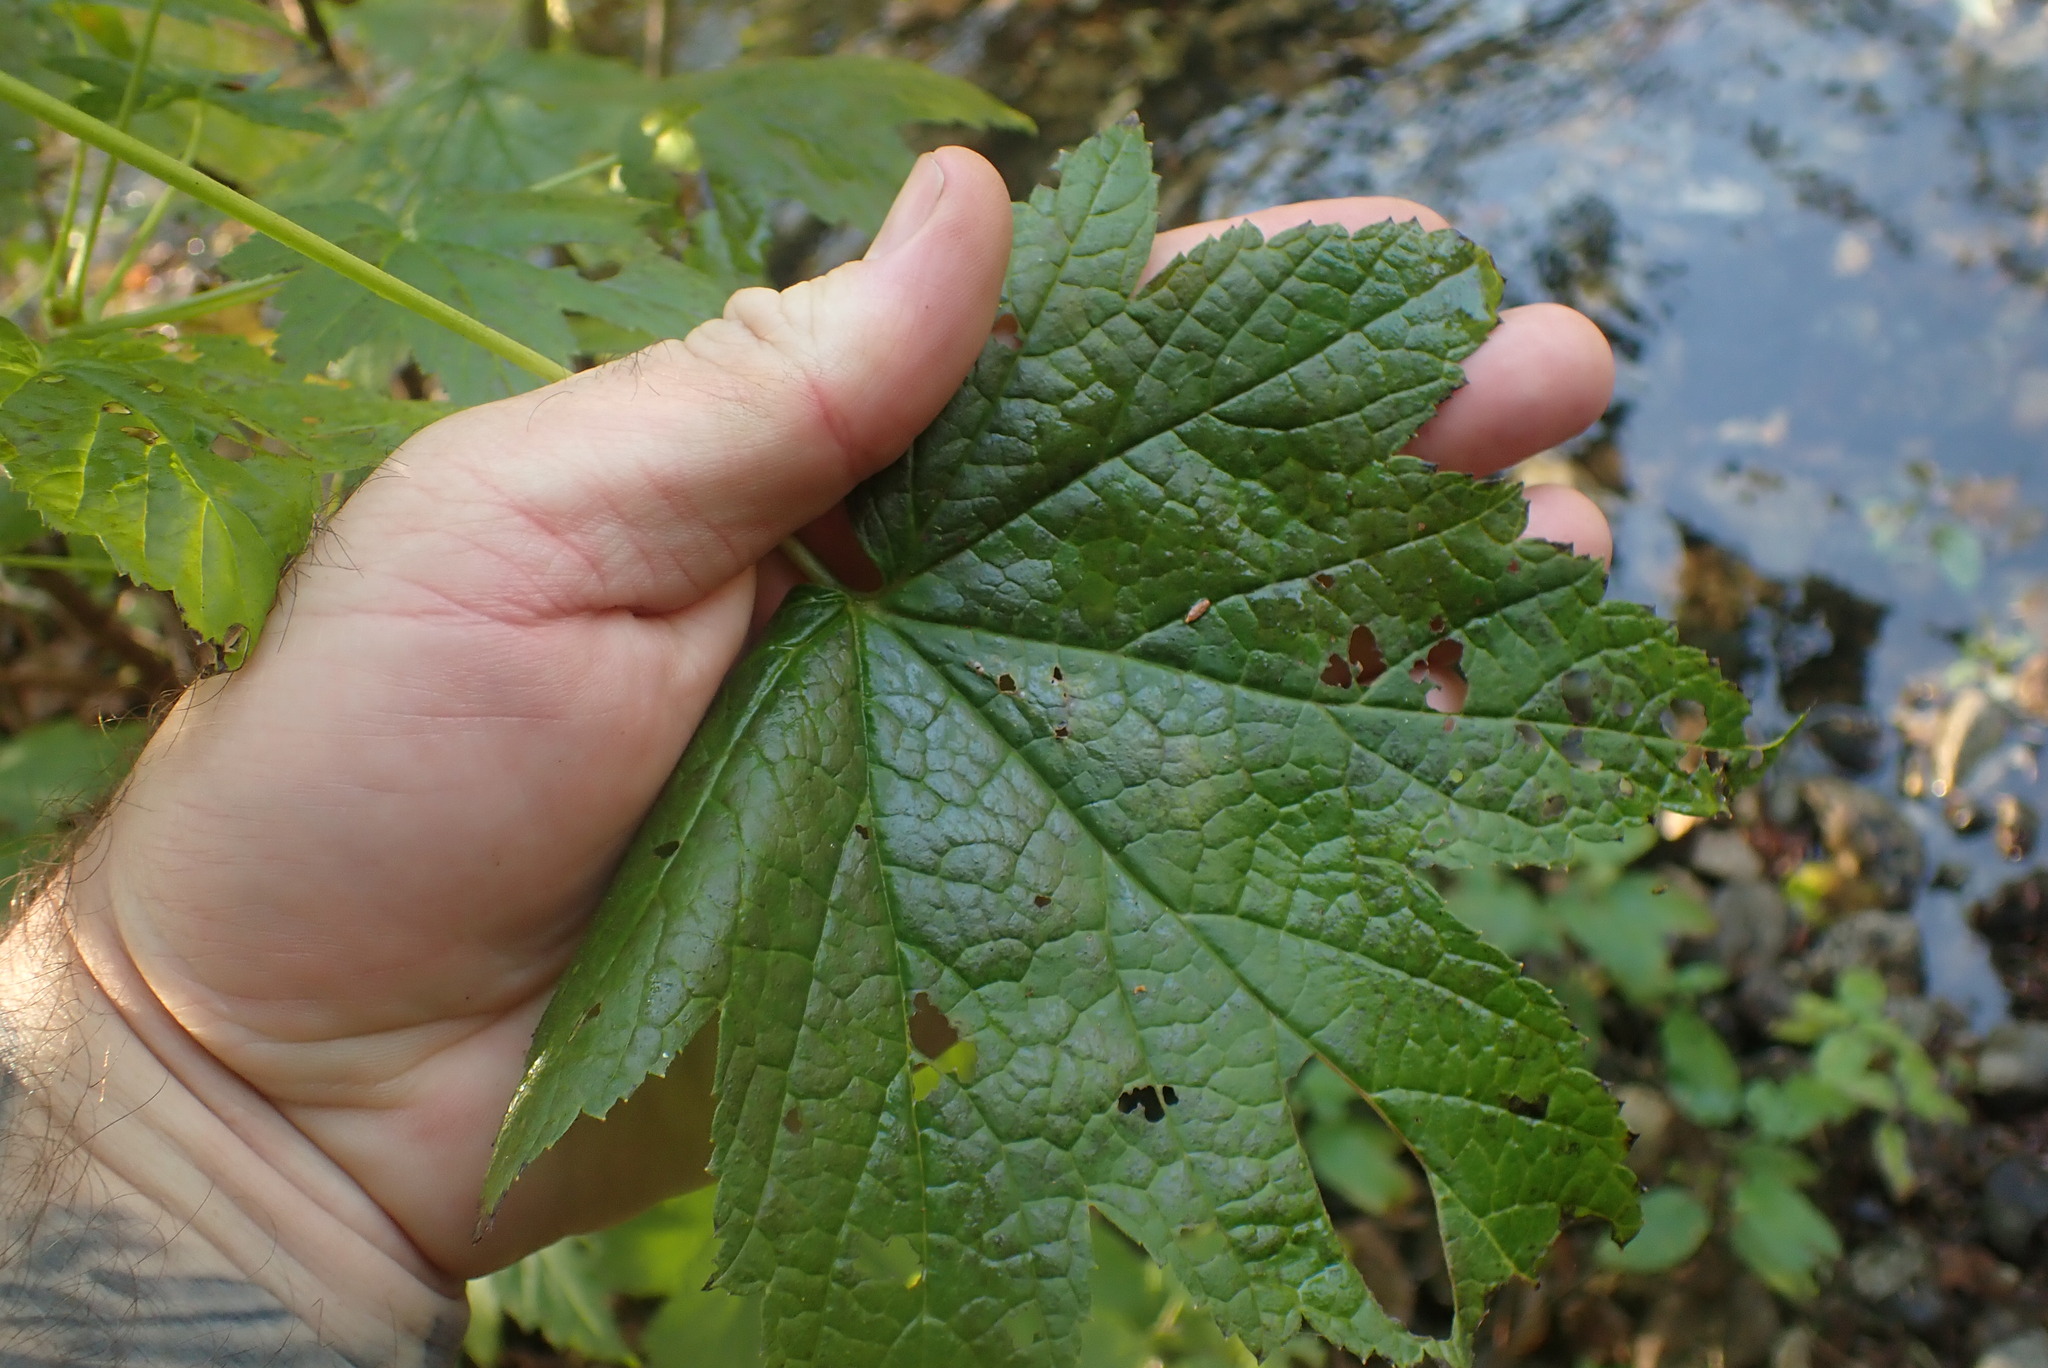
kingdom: Plantae
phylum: Tracheophyta
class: Magnoliopsida
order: Saxifragales
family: Grossulariaceae
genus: Ribes
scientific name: Ribes bracteosum
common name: California black currant
